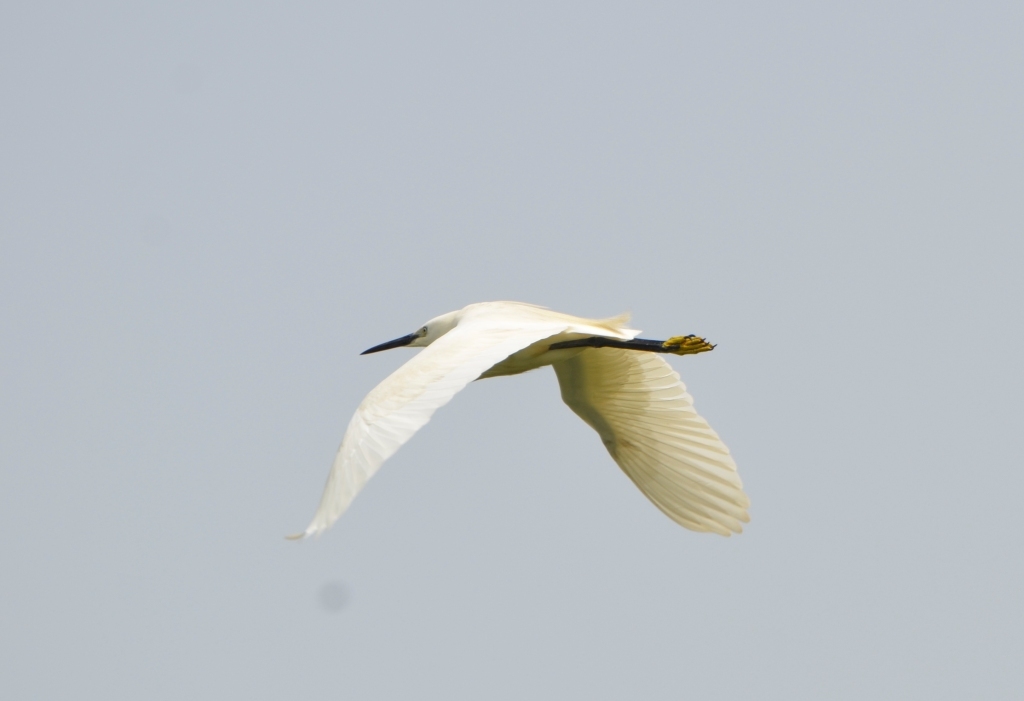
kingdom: Animalia
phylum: Chordata
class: Aves
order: Pelecaniformes
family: Ardeidae
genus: Egretta
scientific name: Egretta garzetta
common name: Little egret
